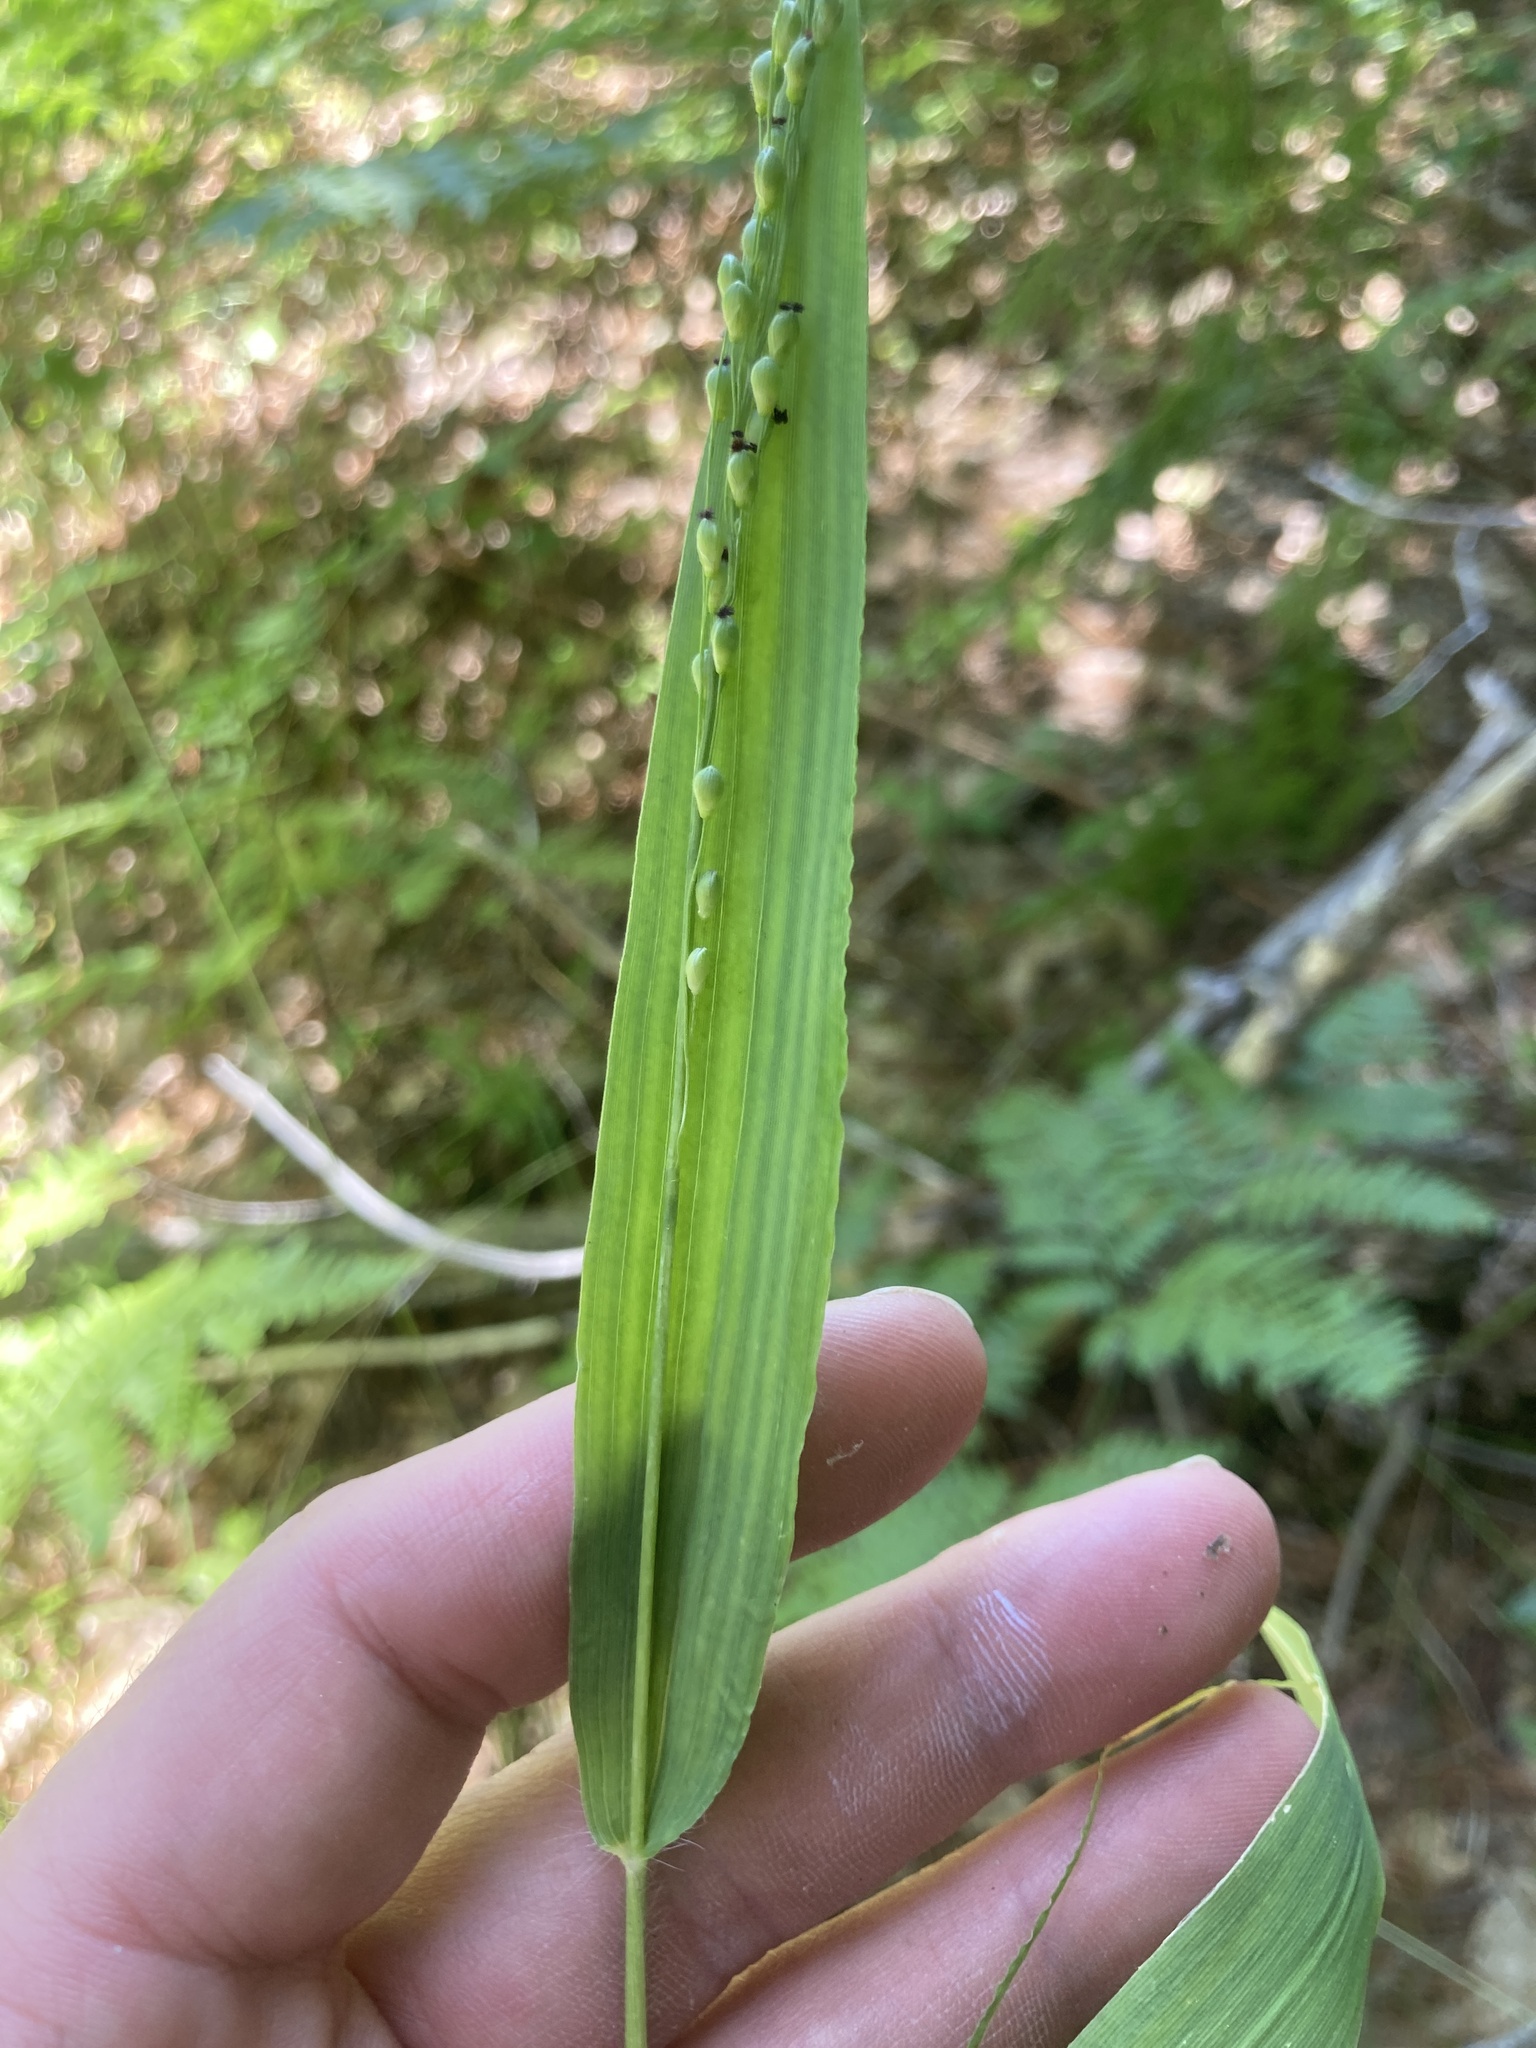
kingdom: Plantae
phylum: Tracheophyta
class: Liliopsida
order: Poales
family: Poaceae
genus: Dichanthelium
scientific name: Dichanthelium latifolium
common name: Broad-leaved panicgrass
